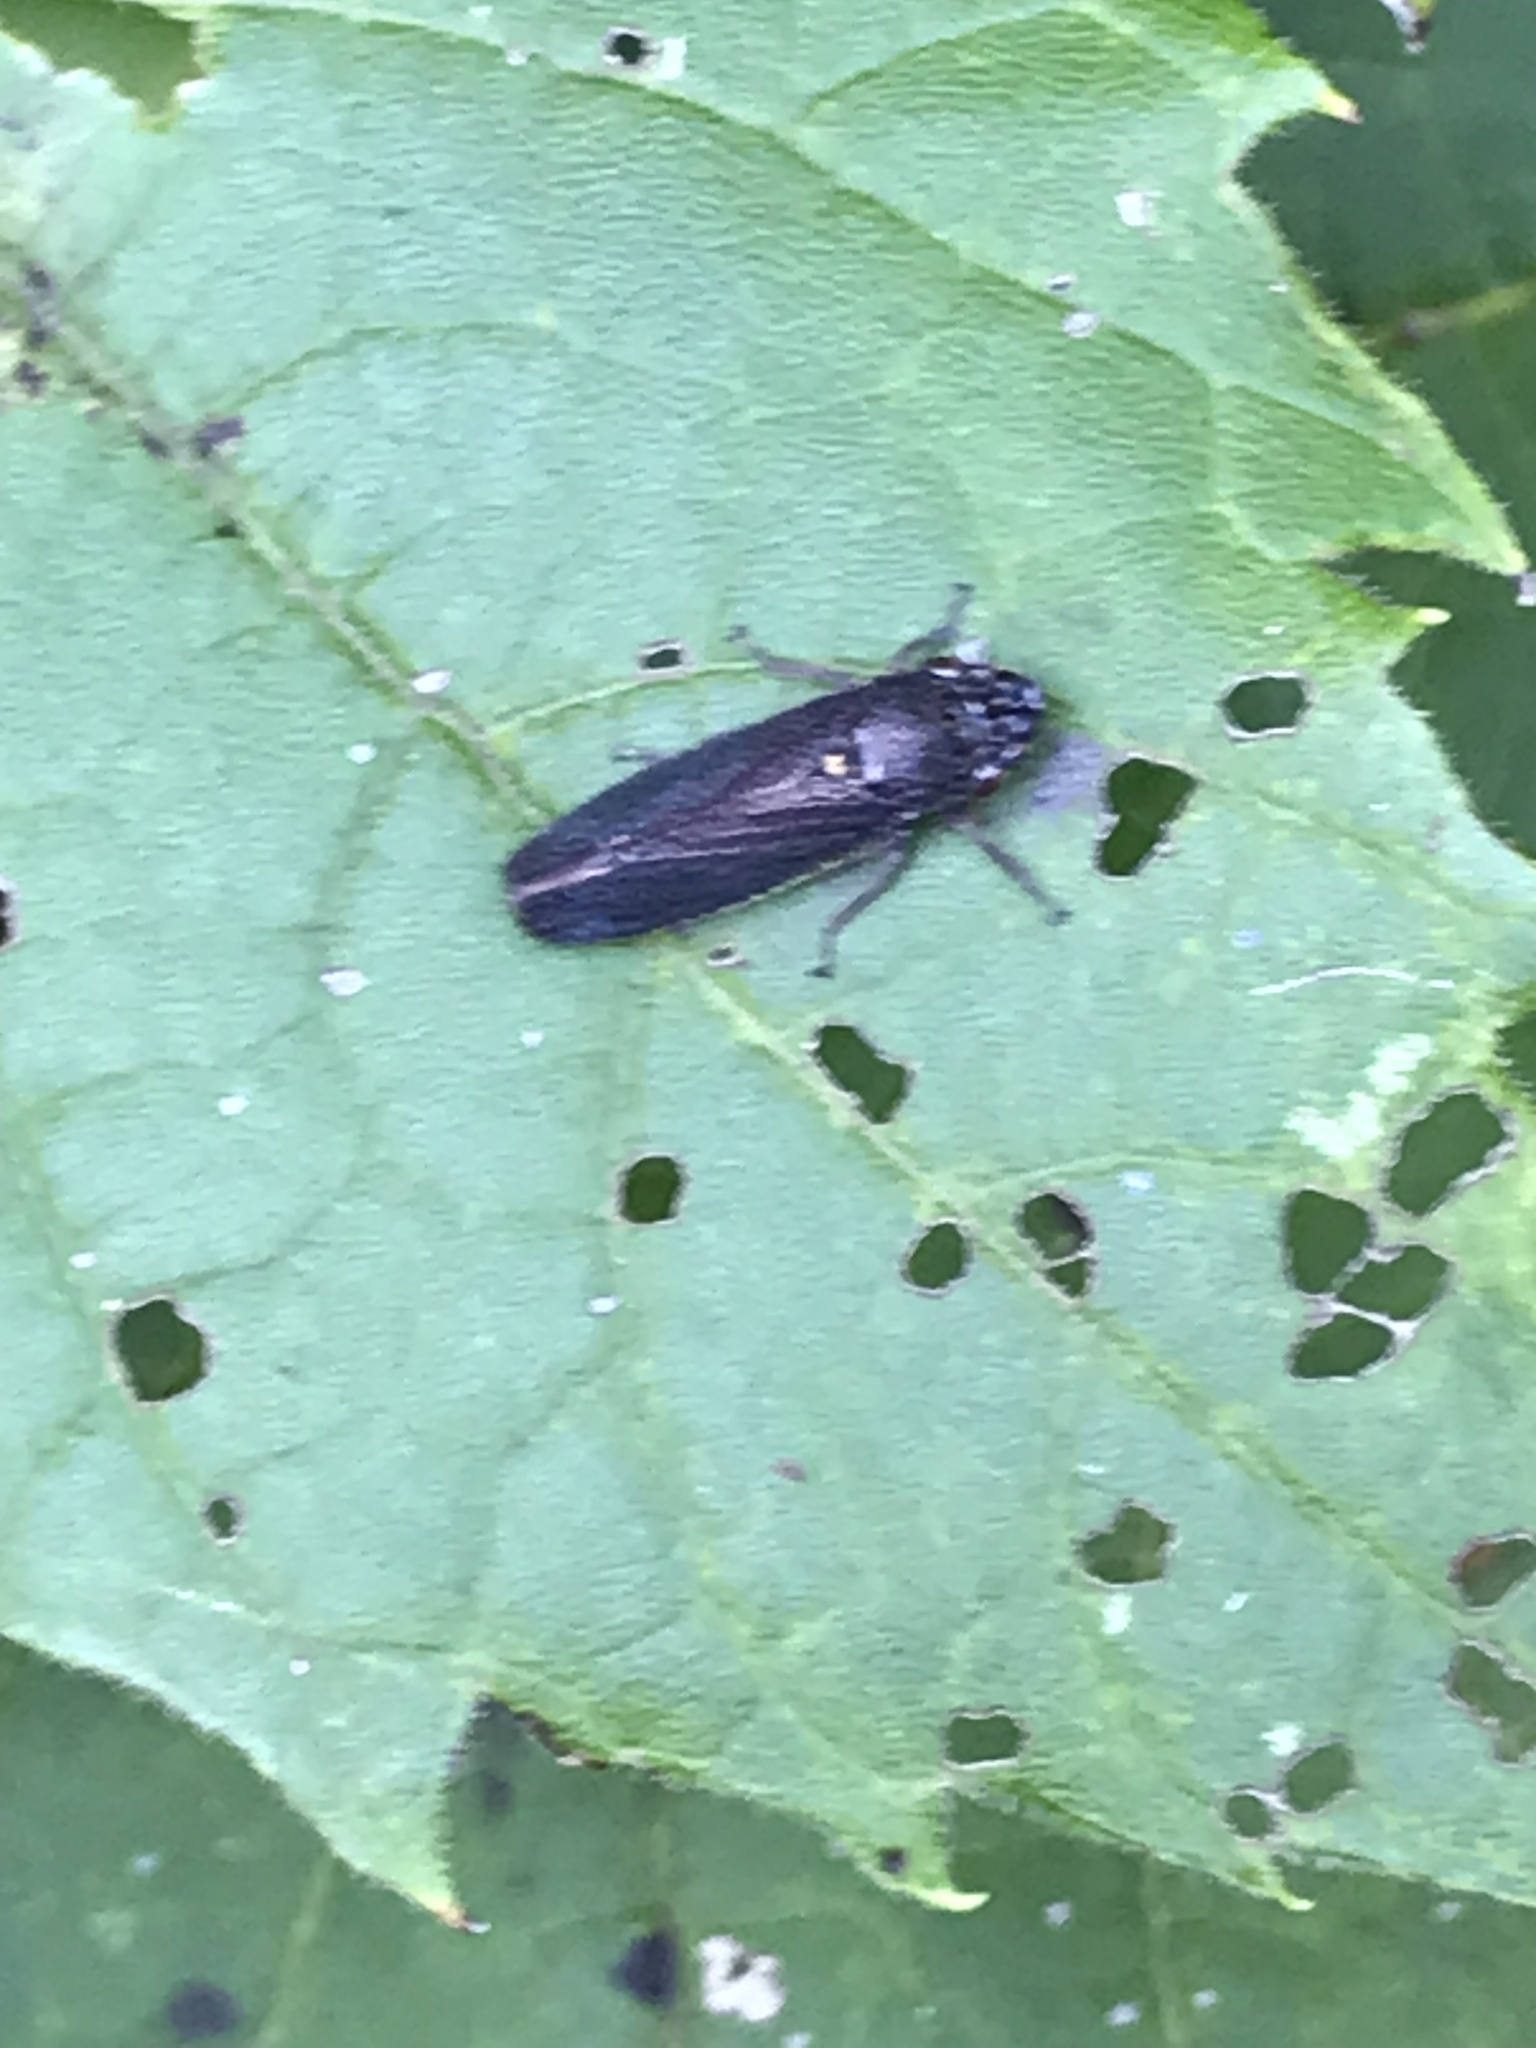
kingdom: Animalia
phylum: Arthropoda
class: Insecta
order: Hemiptera
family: Cicadellidae
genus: Paraulacizes
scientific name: Paraulacizes irrorata
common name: Speckled sharpshooter
